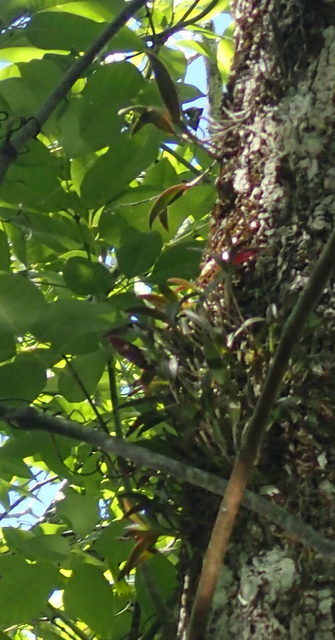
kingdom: Plantae
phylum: Tracheophyta
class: Liliopsida
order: Asparagales
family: Orchidaceae
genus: Epidendrum
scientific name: Epidendrum conopseum
